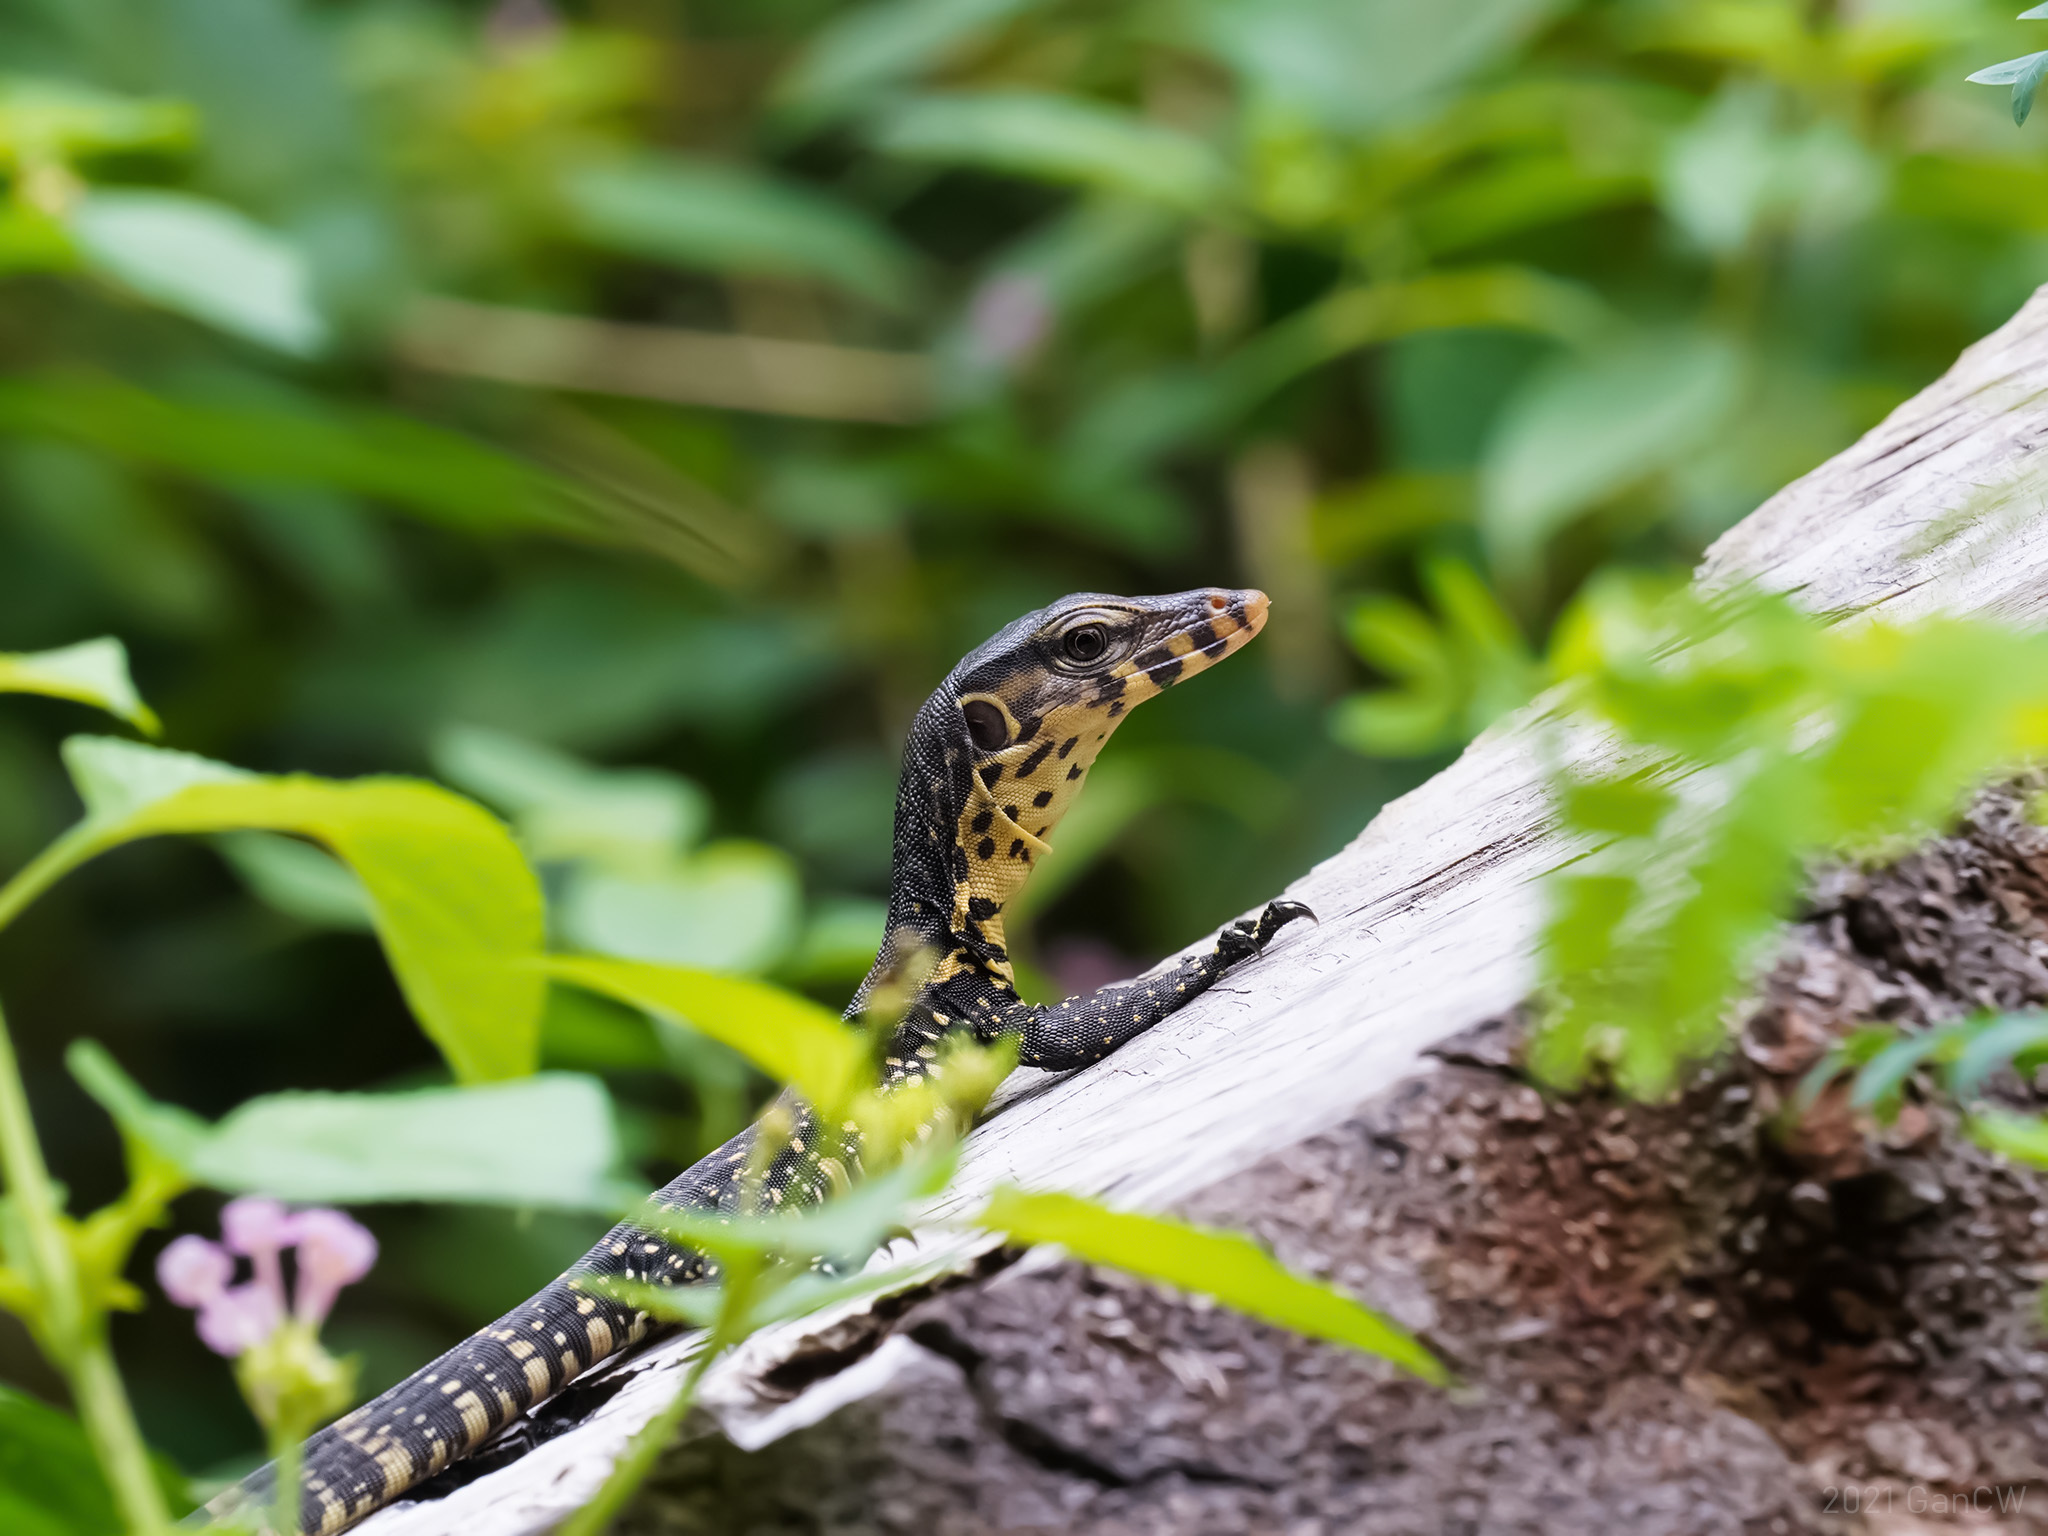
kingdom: Animalia
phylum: Chordata
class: Squamata
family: Varanidae
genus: Varanus
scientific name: Varanus salvator
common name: Common water monitor
